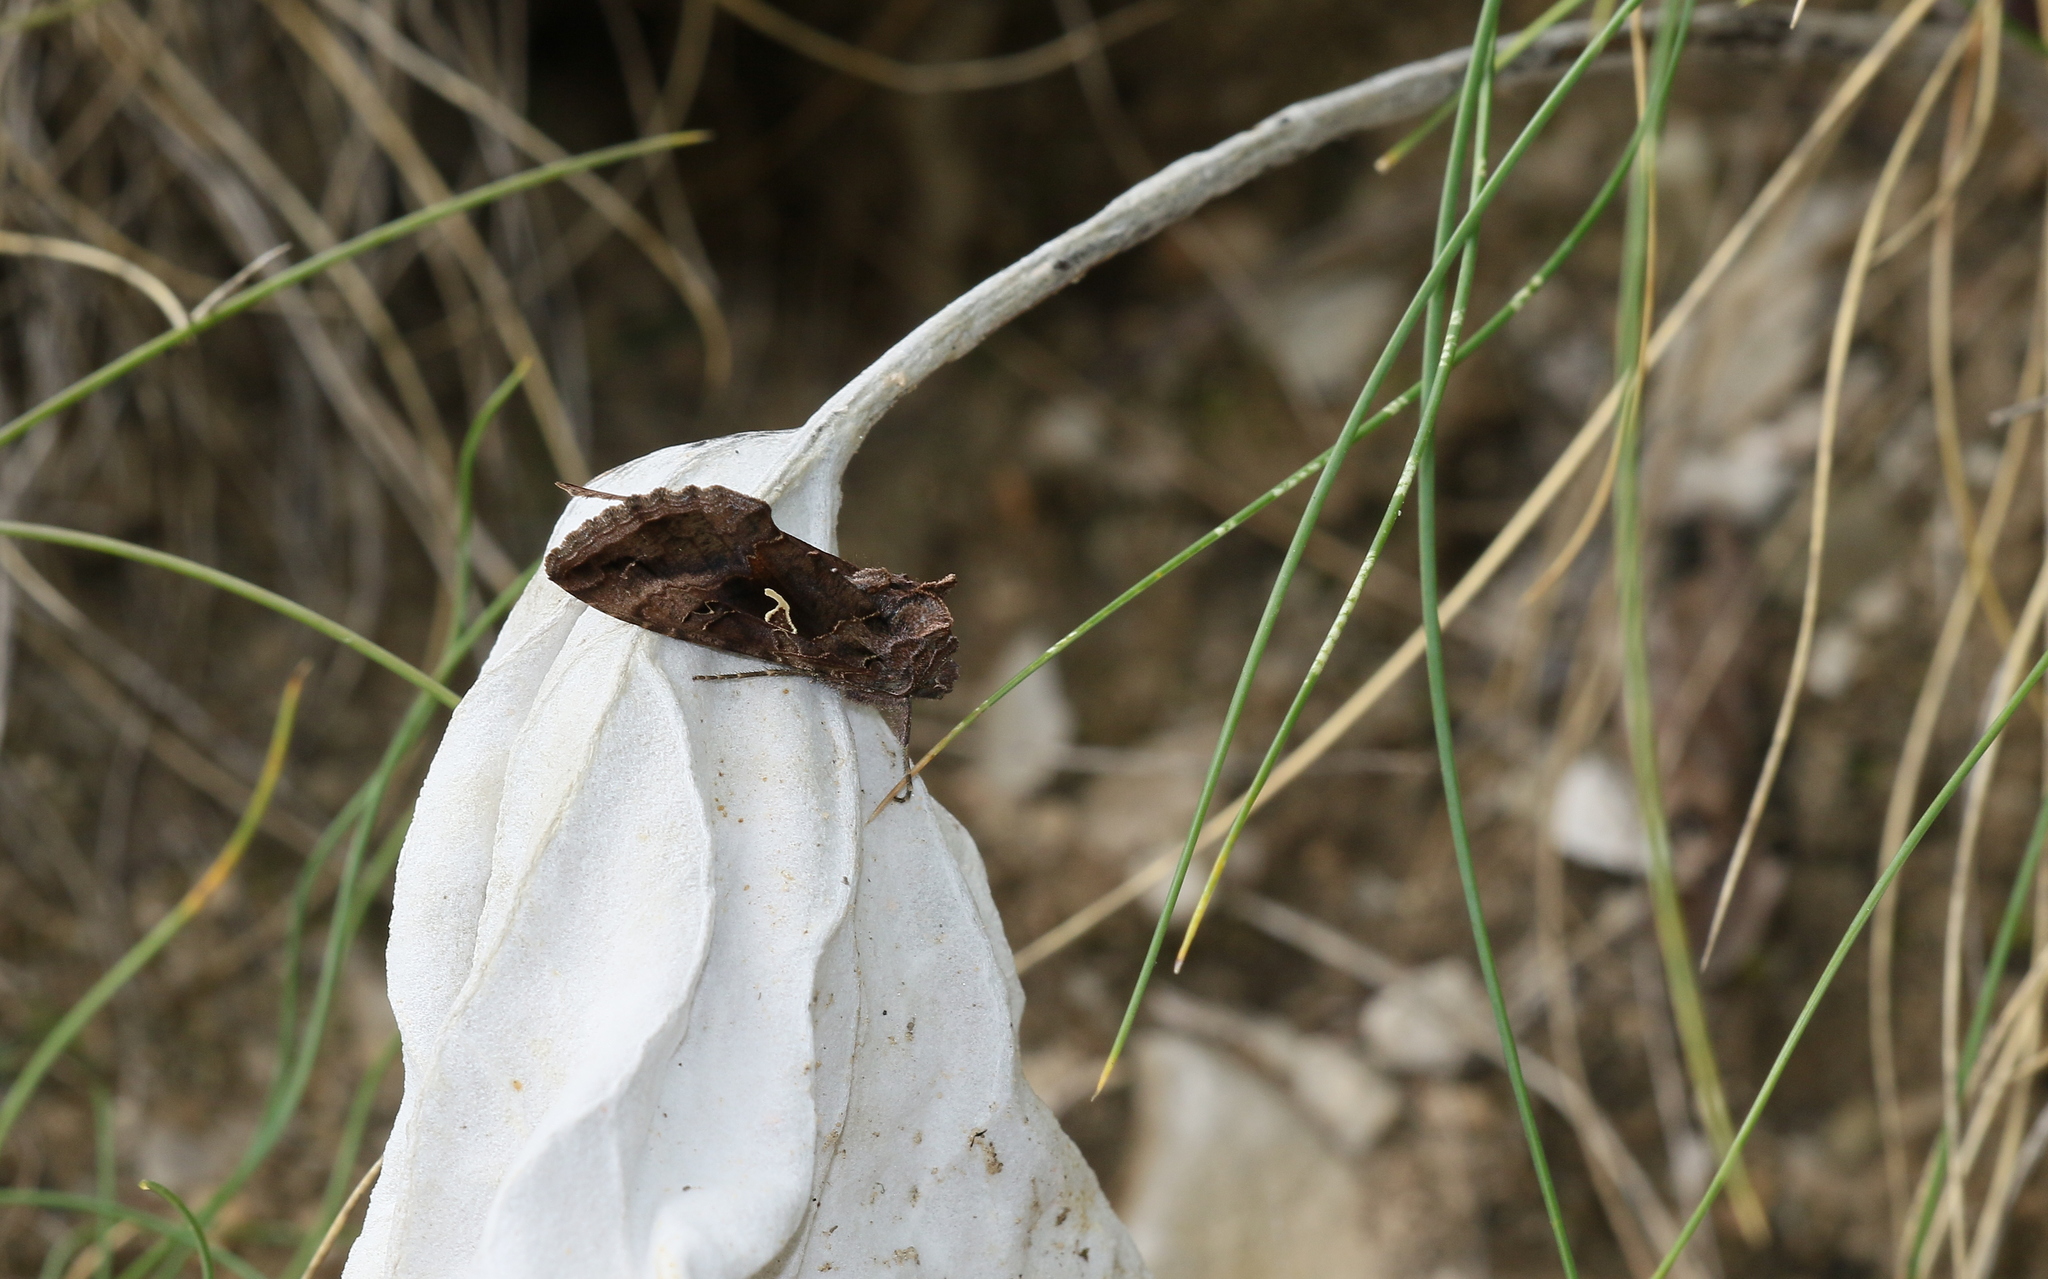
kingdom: Animalia
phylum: Arthropoda
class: Insecta
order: Lepidoptera
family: Noctuidae
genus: Autographa
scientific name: Autographa gamma
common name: Silver y
